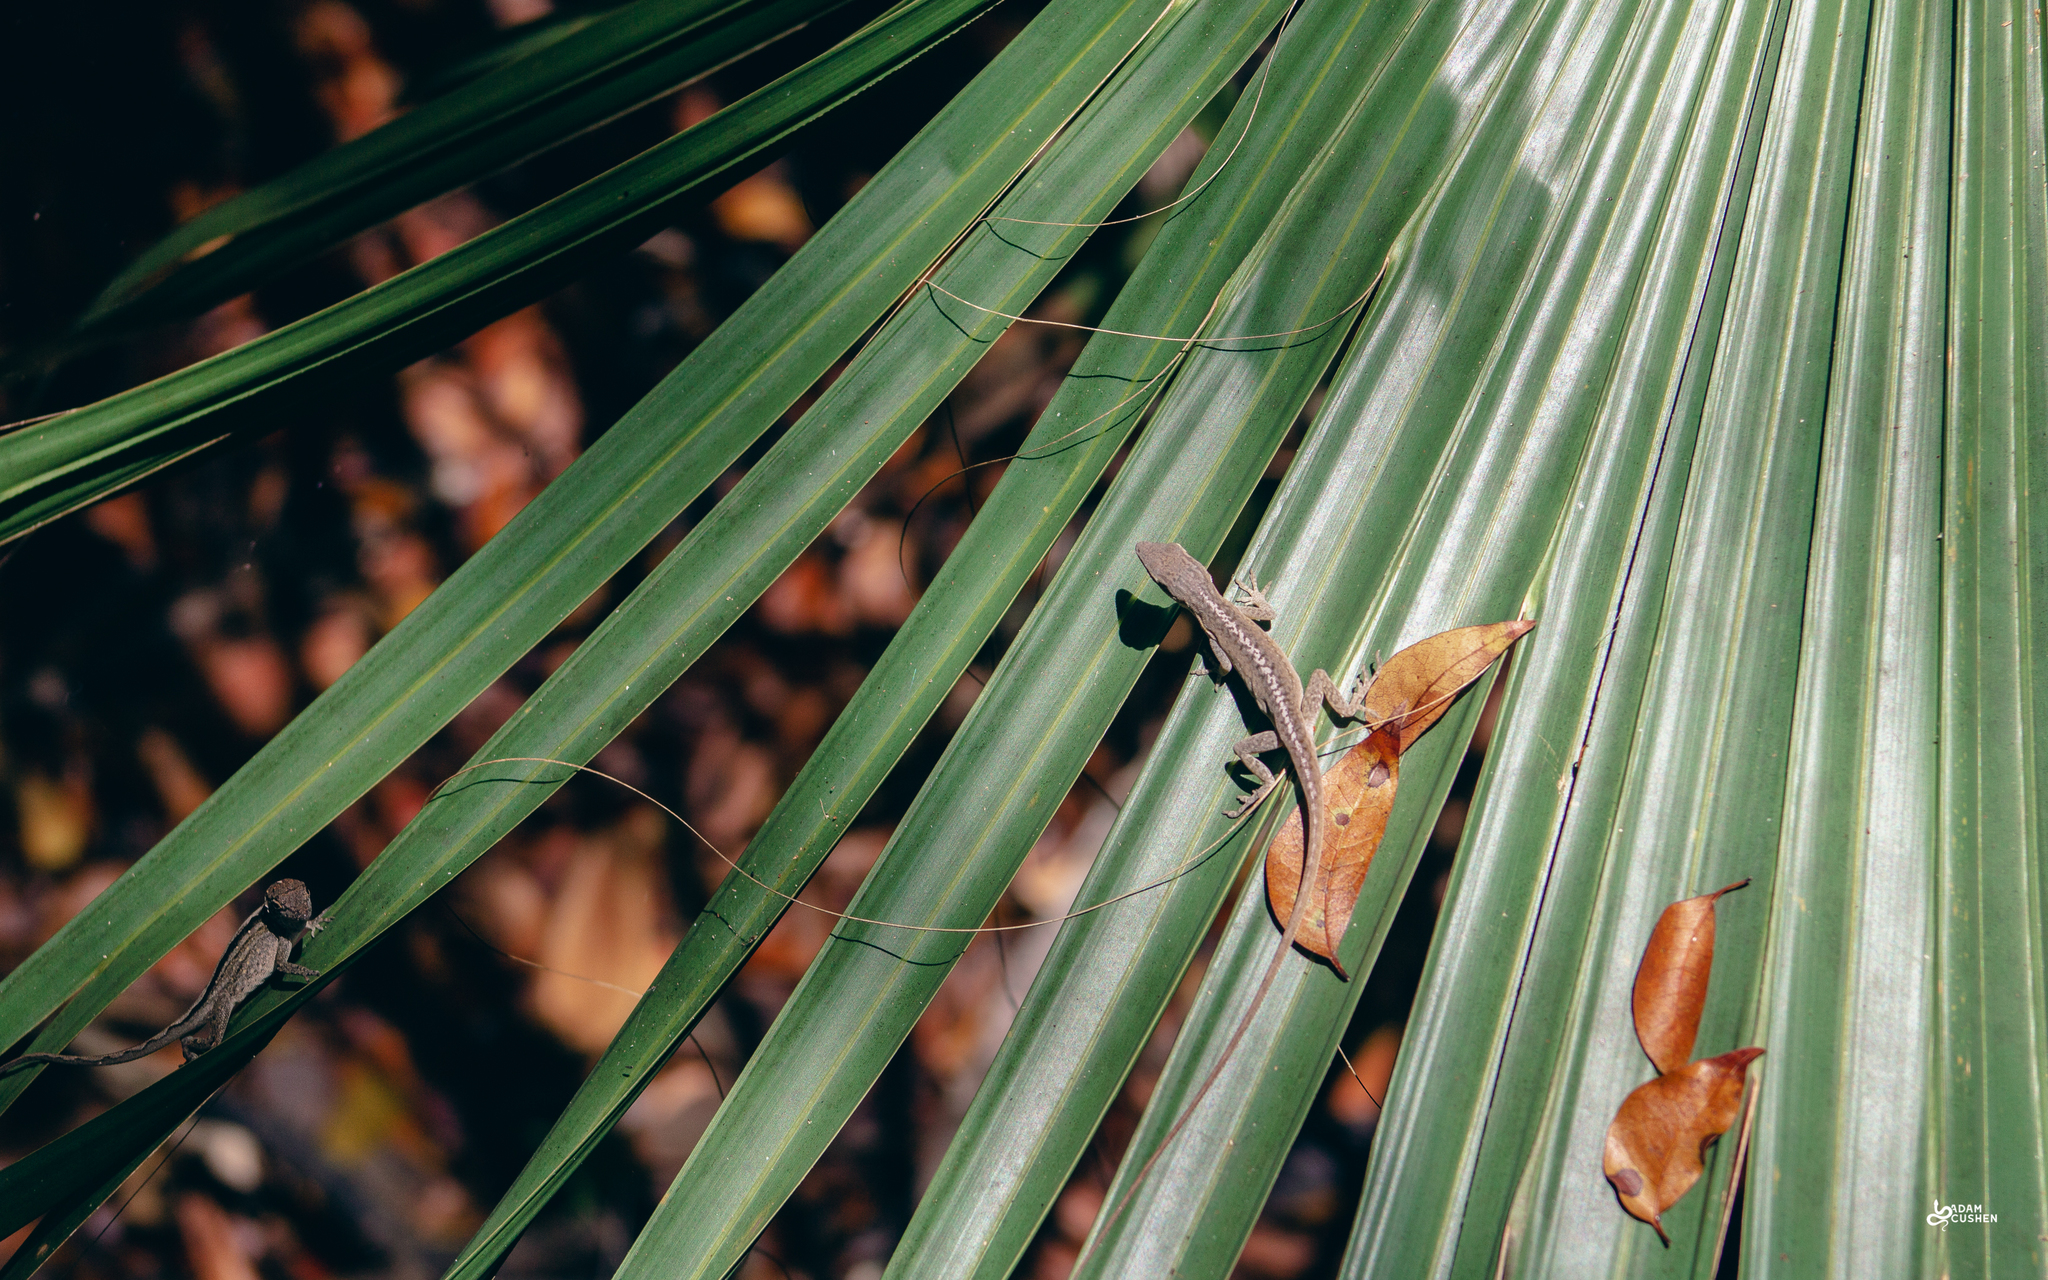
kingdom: Animalia
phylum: Chordata
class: Squamata
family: Dactyloidae
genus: Anolis
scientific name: Anolis carolinensis
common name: Green anole
